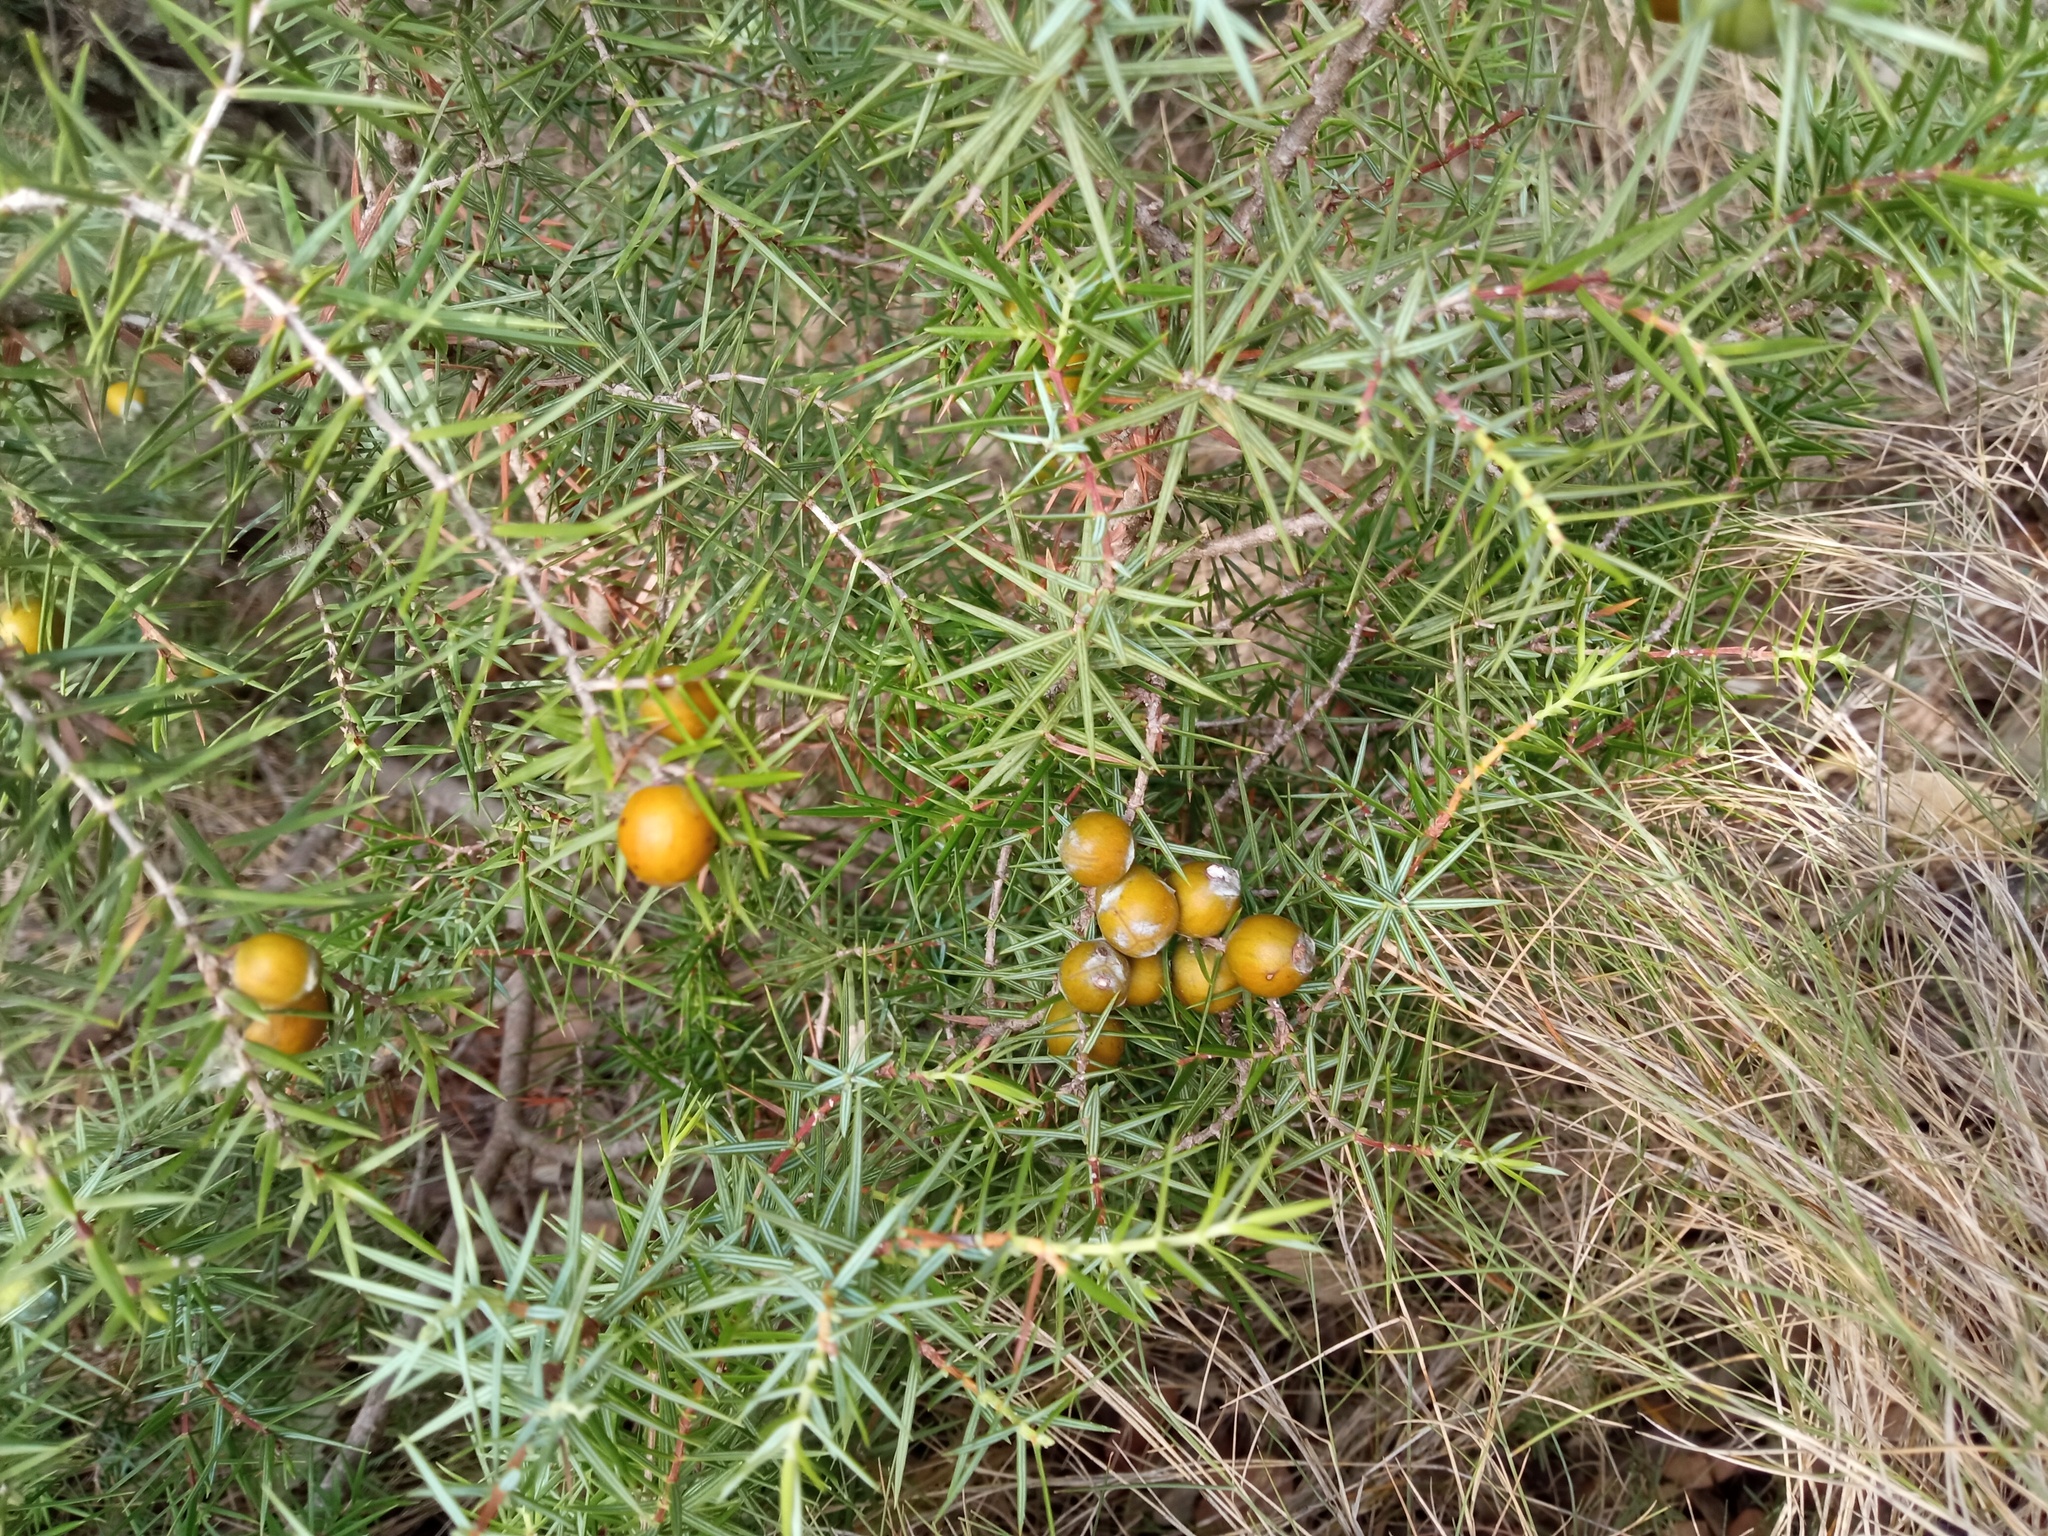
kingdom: Plantae
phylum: Tracheophyta
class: Pinopsida
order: Pinales
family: Cupressaceae
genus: Juniperus
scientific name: Juniperus oxycedrus
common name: Prickly juniper
